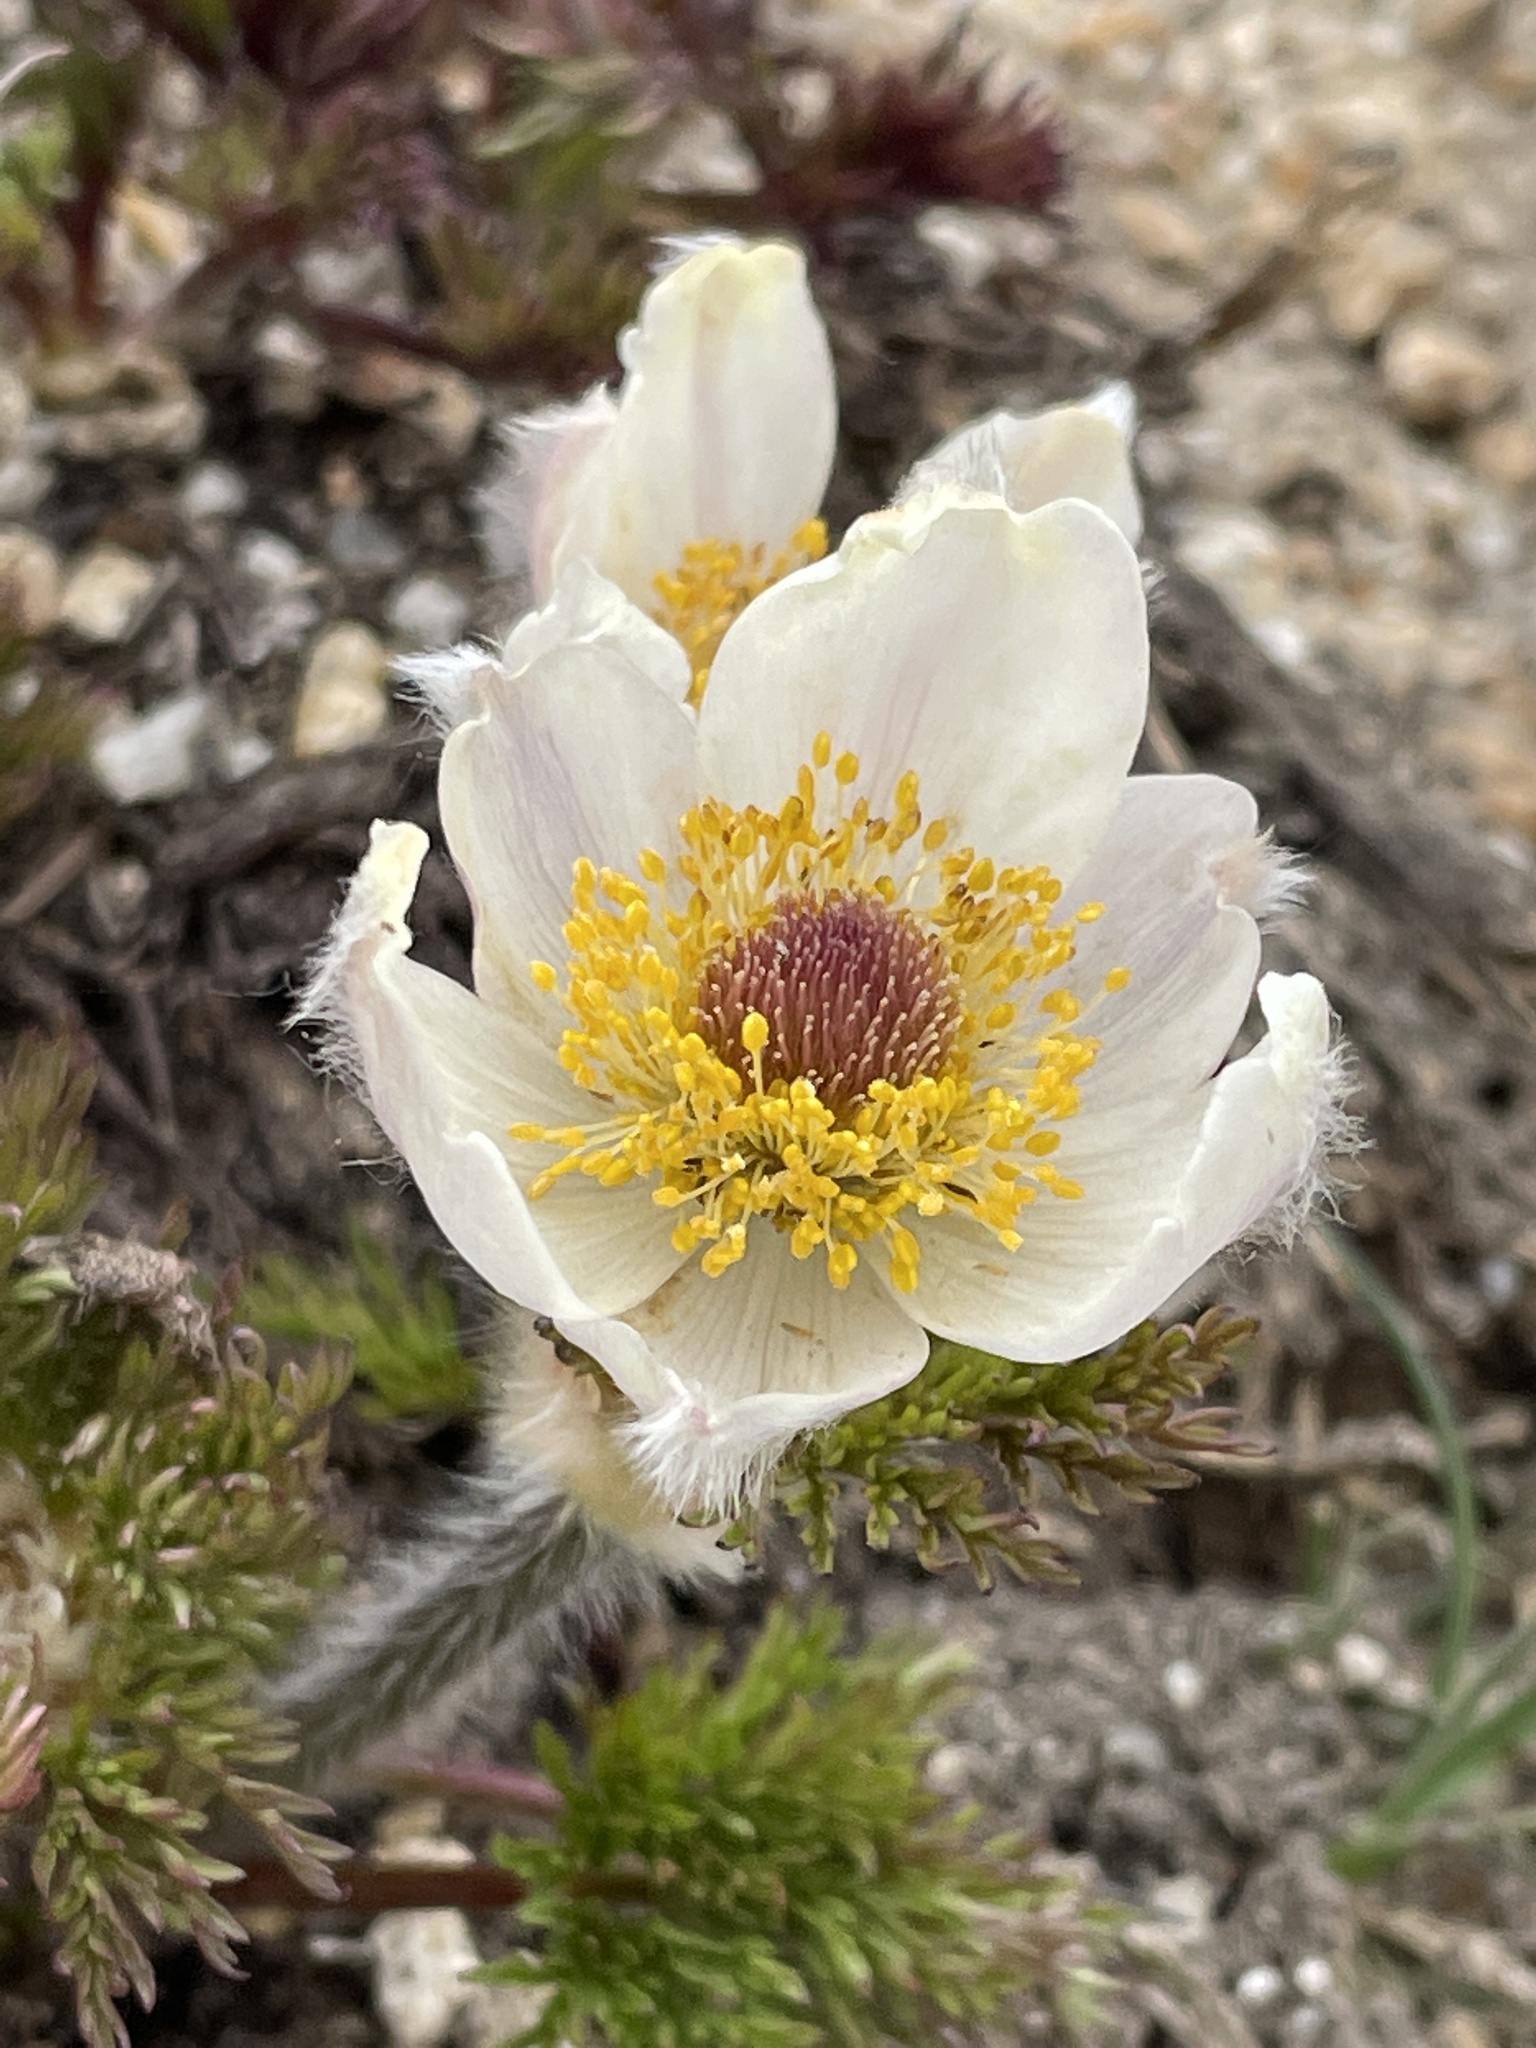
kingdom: Plantae
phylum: Tracheophyta
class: Magnoliopsida
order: Ranunculales
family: Ranunculaceae
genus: Pulsatilla
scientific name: Pulsatilla occidentalis
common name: Mountain pasqueflower
